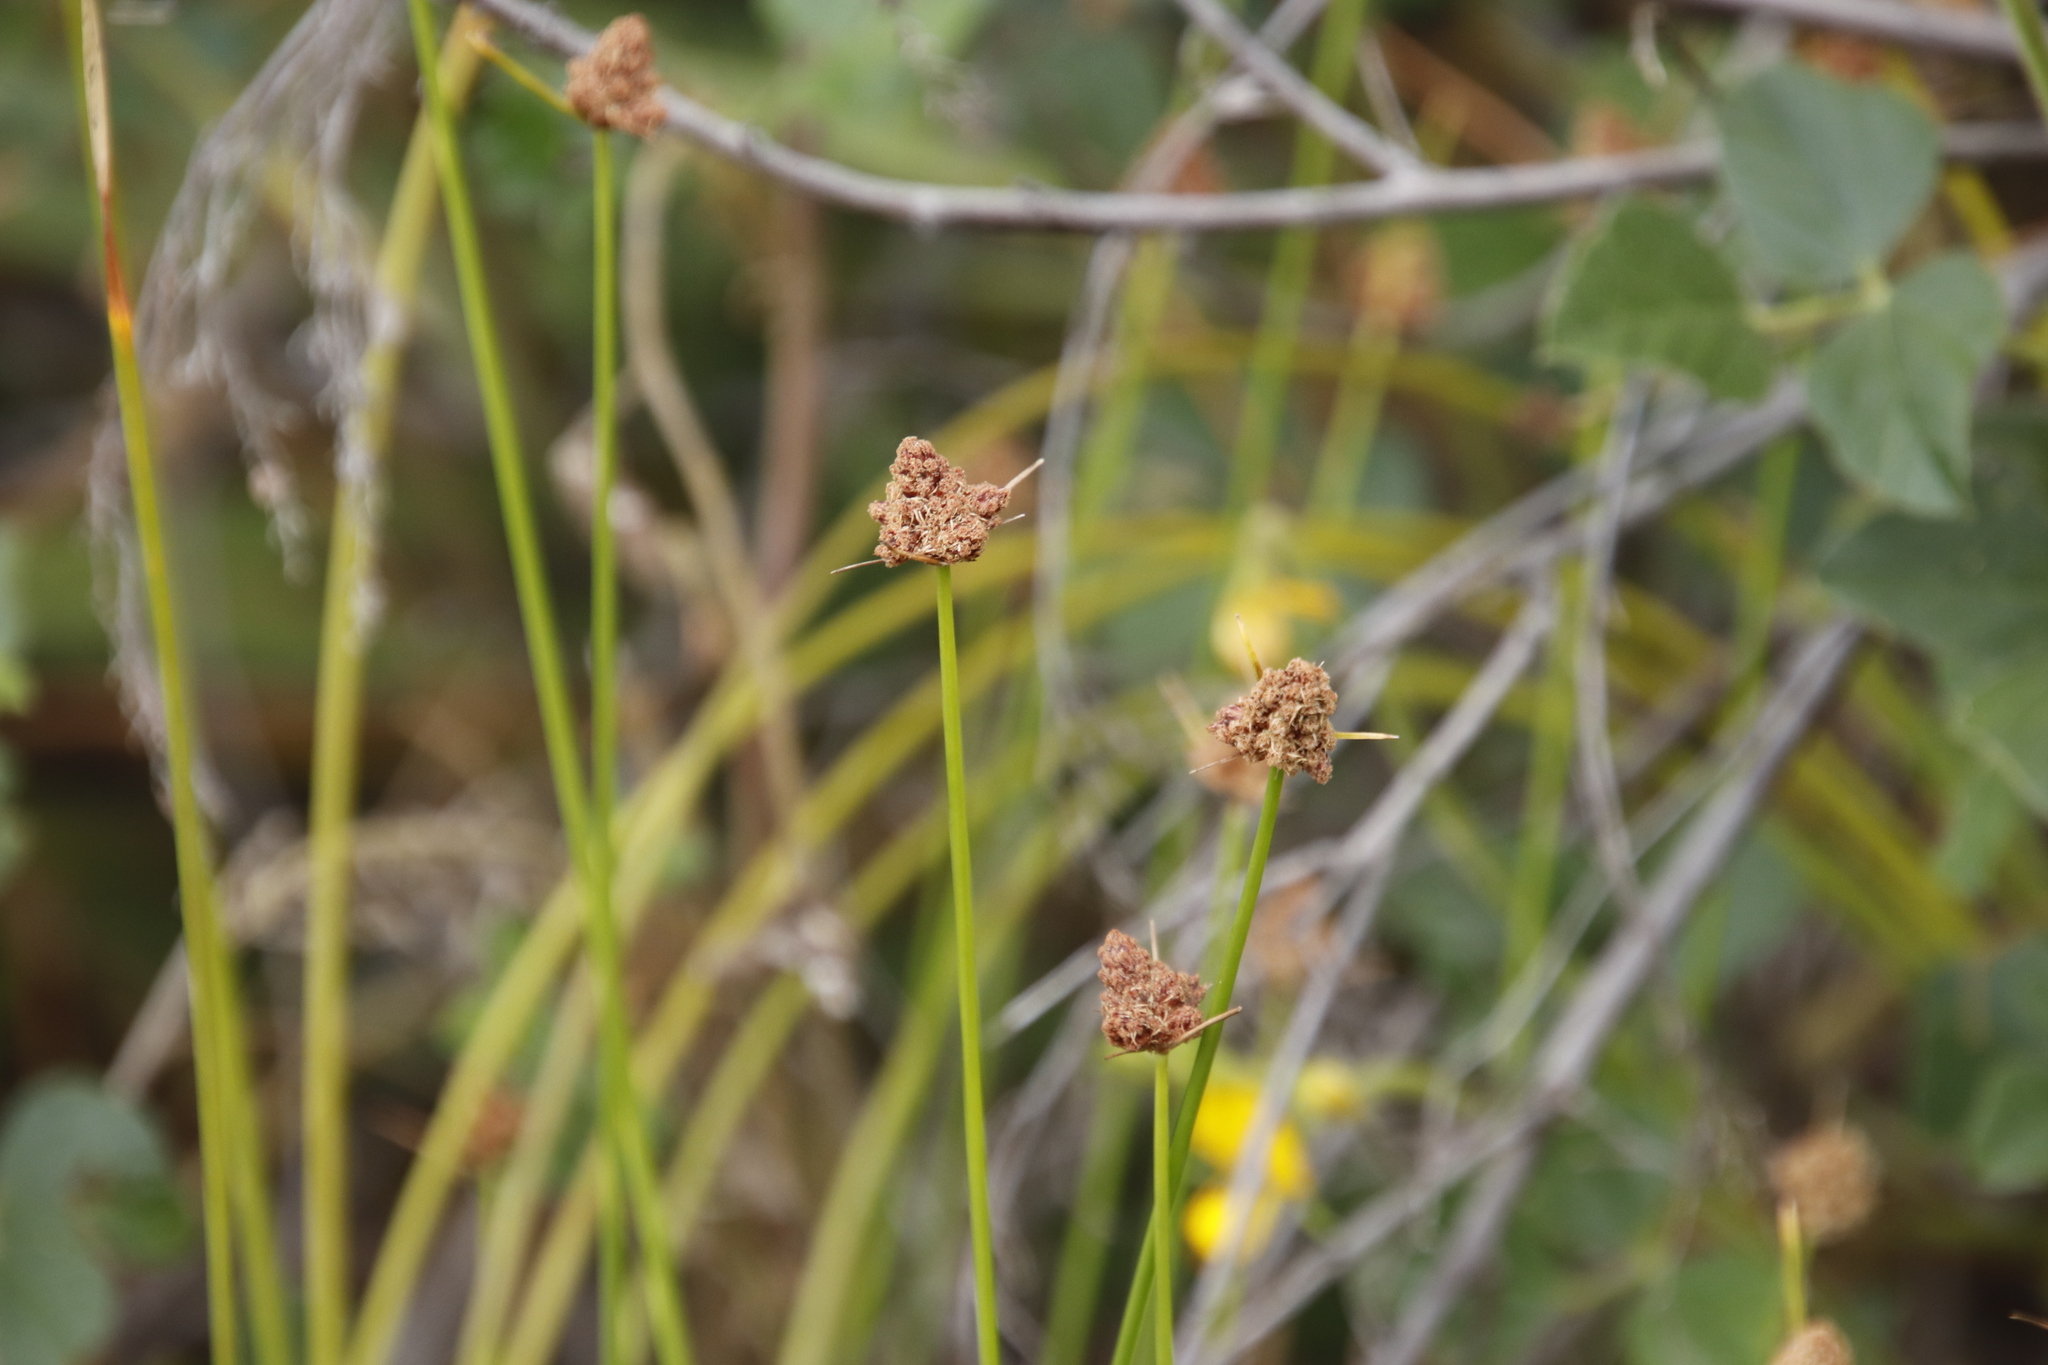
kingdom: Plantae
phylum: Tracheophyta
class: Liliopsida
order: Poales
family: Cyperaceae
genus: Ficinia
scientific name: Ficinia brevifolia
